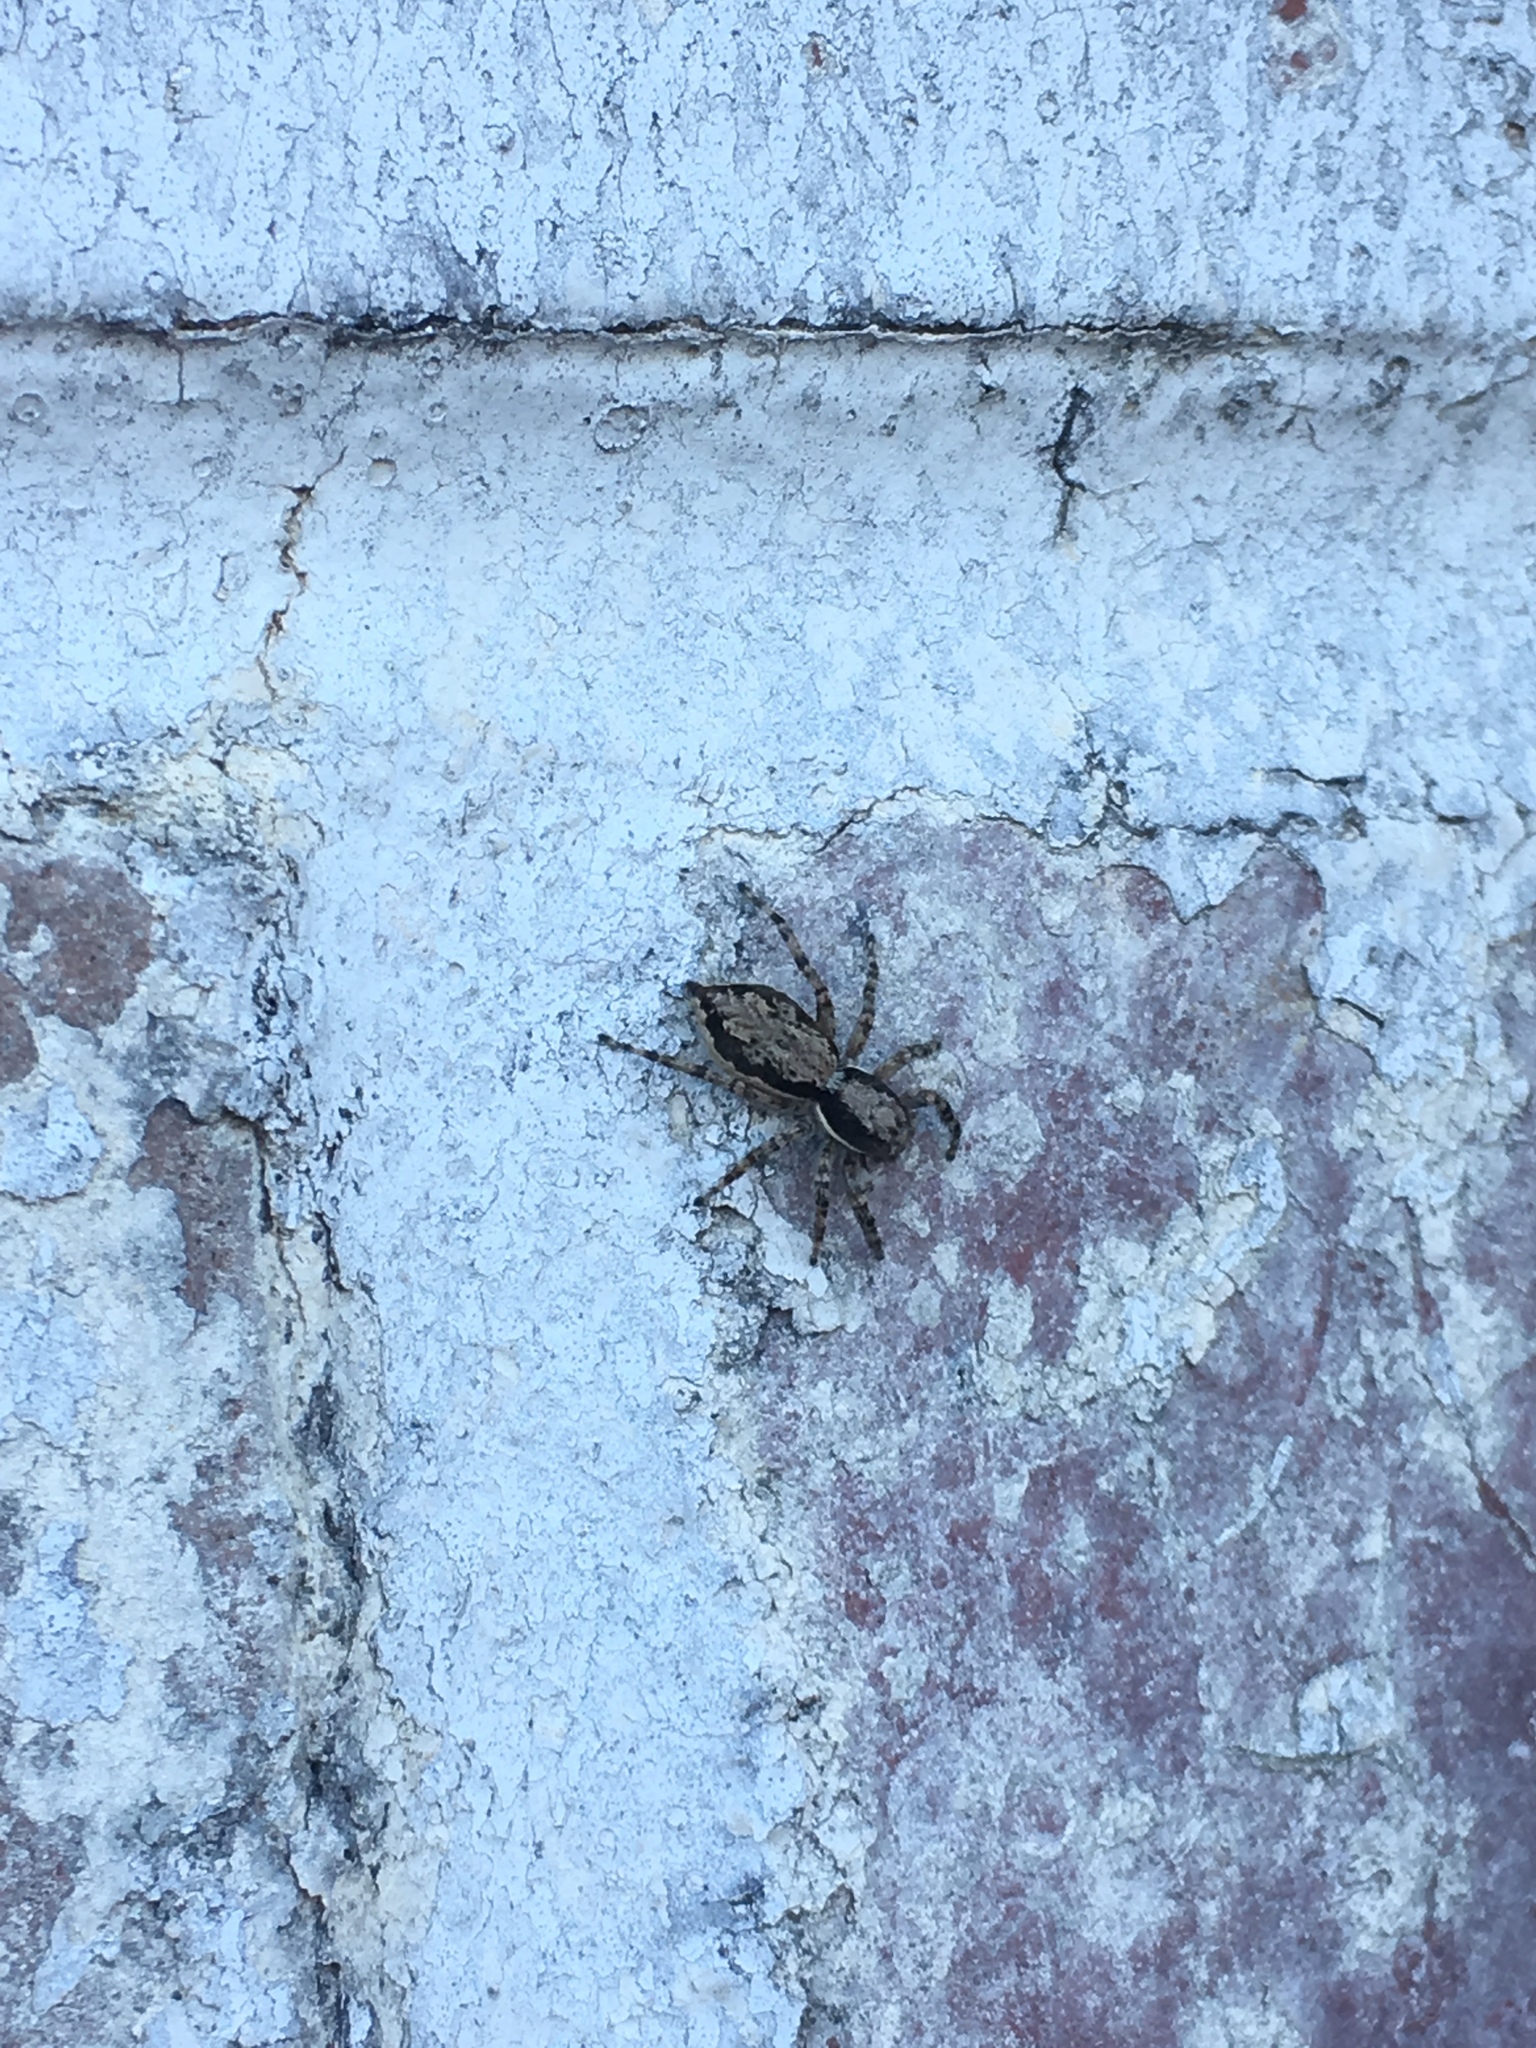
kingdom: Animalia
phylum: Arthropoda
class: Arachnida
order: Araneae
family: Salticidae
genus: Menemerus
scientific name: Menemerus bivittatus
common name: Gray wall jumper
